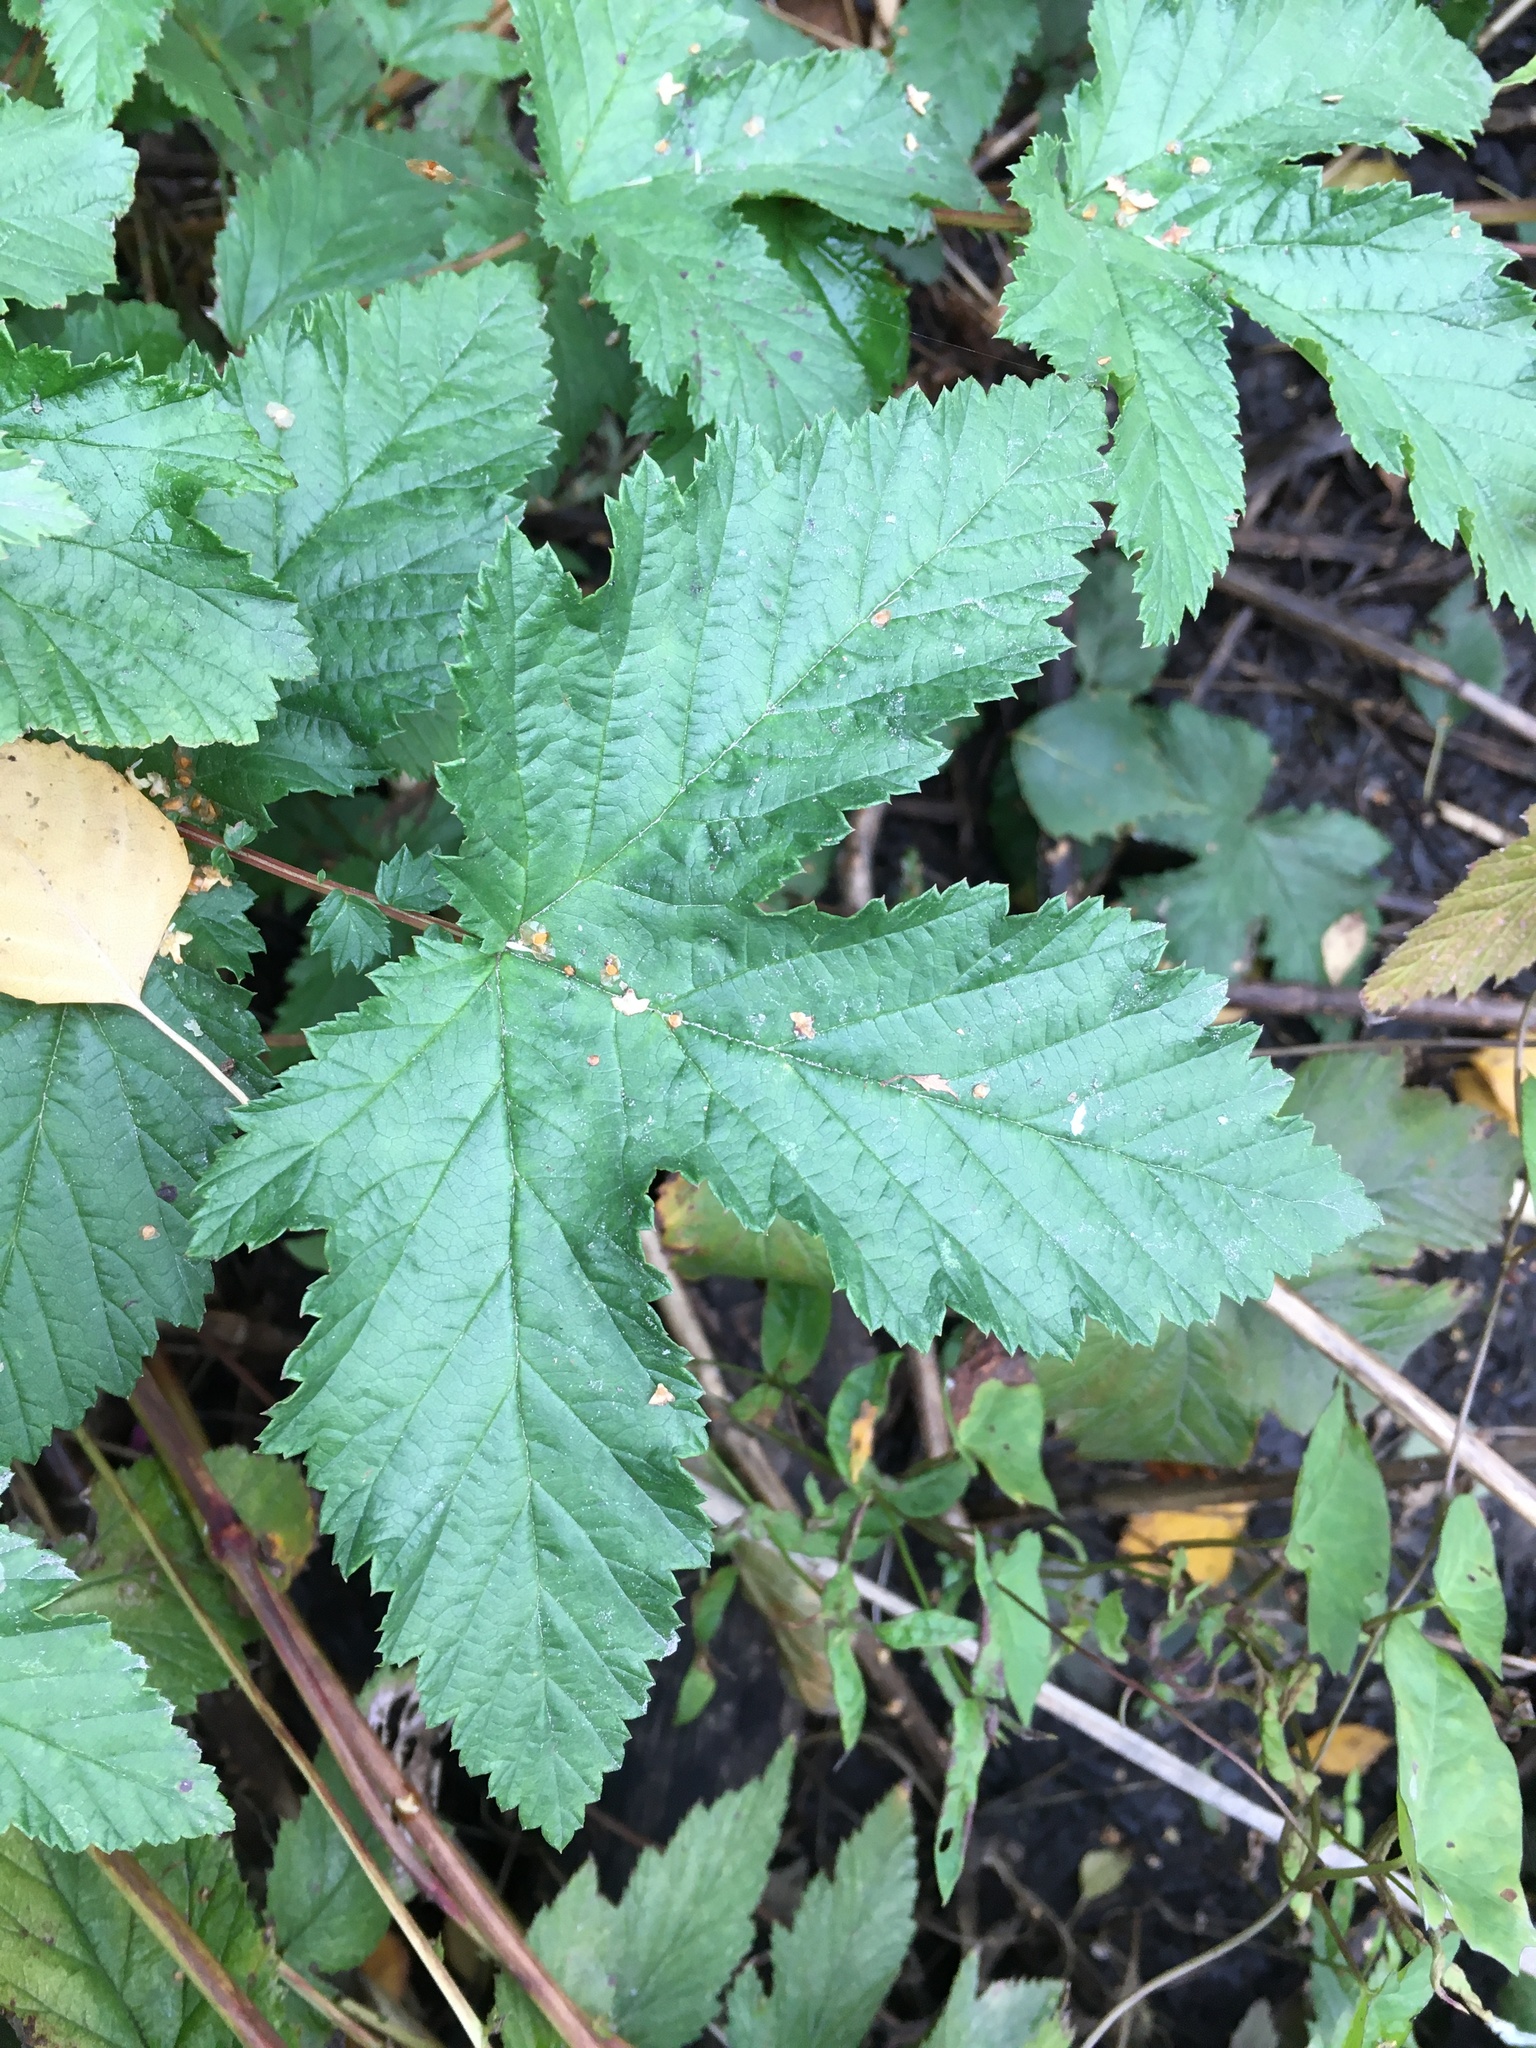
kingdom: Plantae
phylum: Tracheophyta
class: Magnoliopsida
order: Rosales
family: Rosaceae
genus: Filipendula
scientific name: Filipendula ulmaria
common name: Meadowsweet
